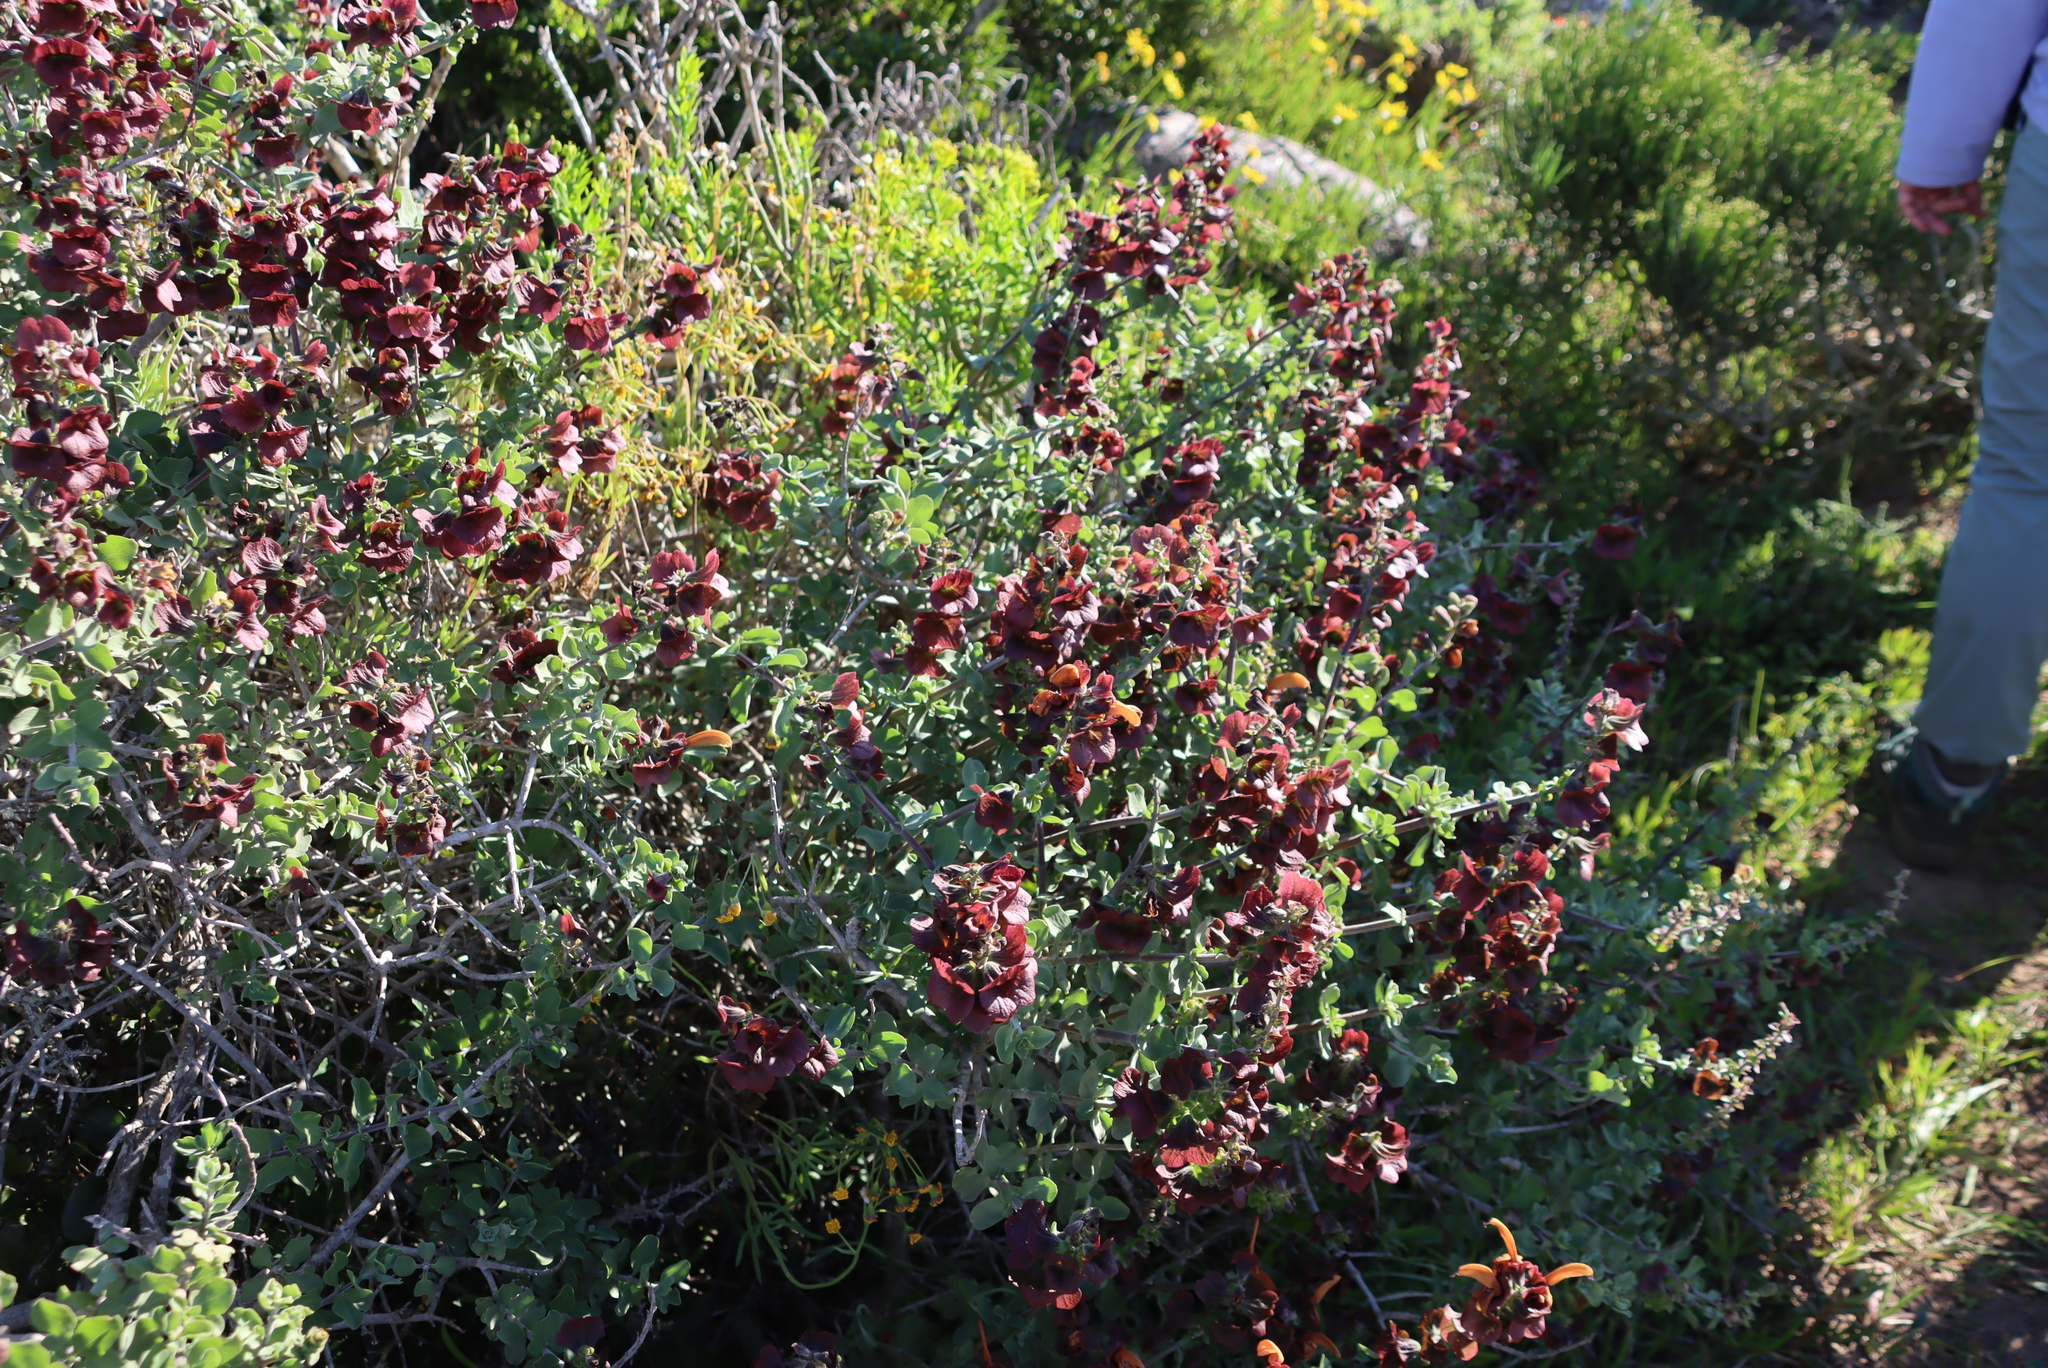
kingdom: Plantae
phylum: Tracheophyta
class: Magnoliopsida
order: Lamiales
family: Lamiaceae
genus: Salvia
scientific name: Salvia aurea
